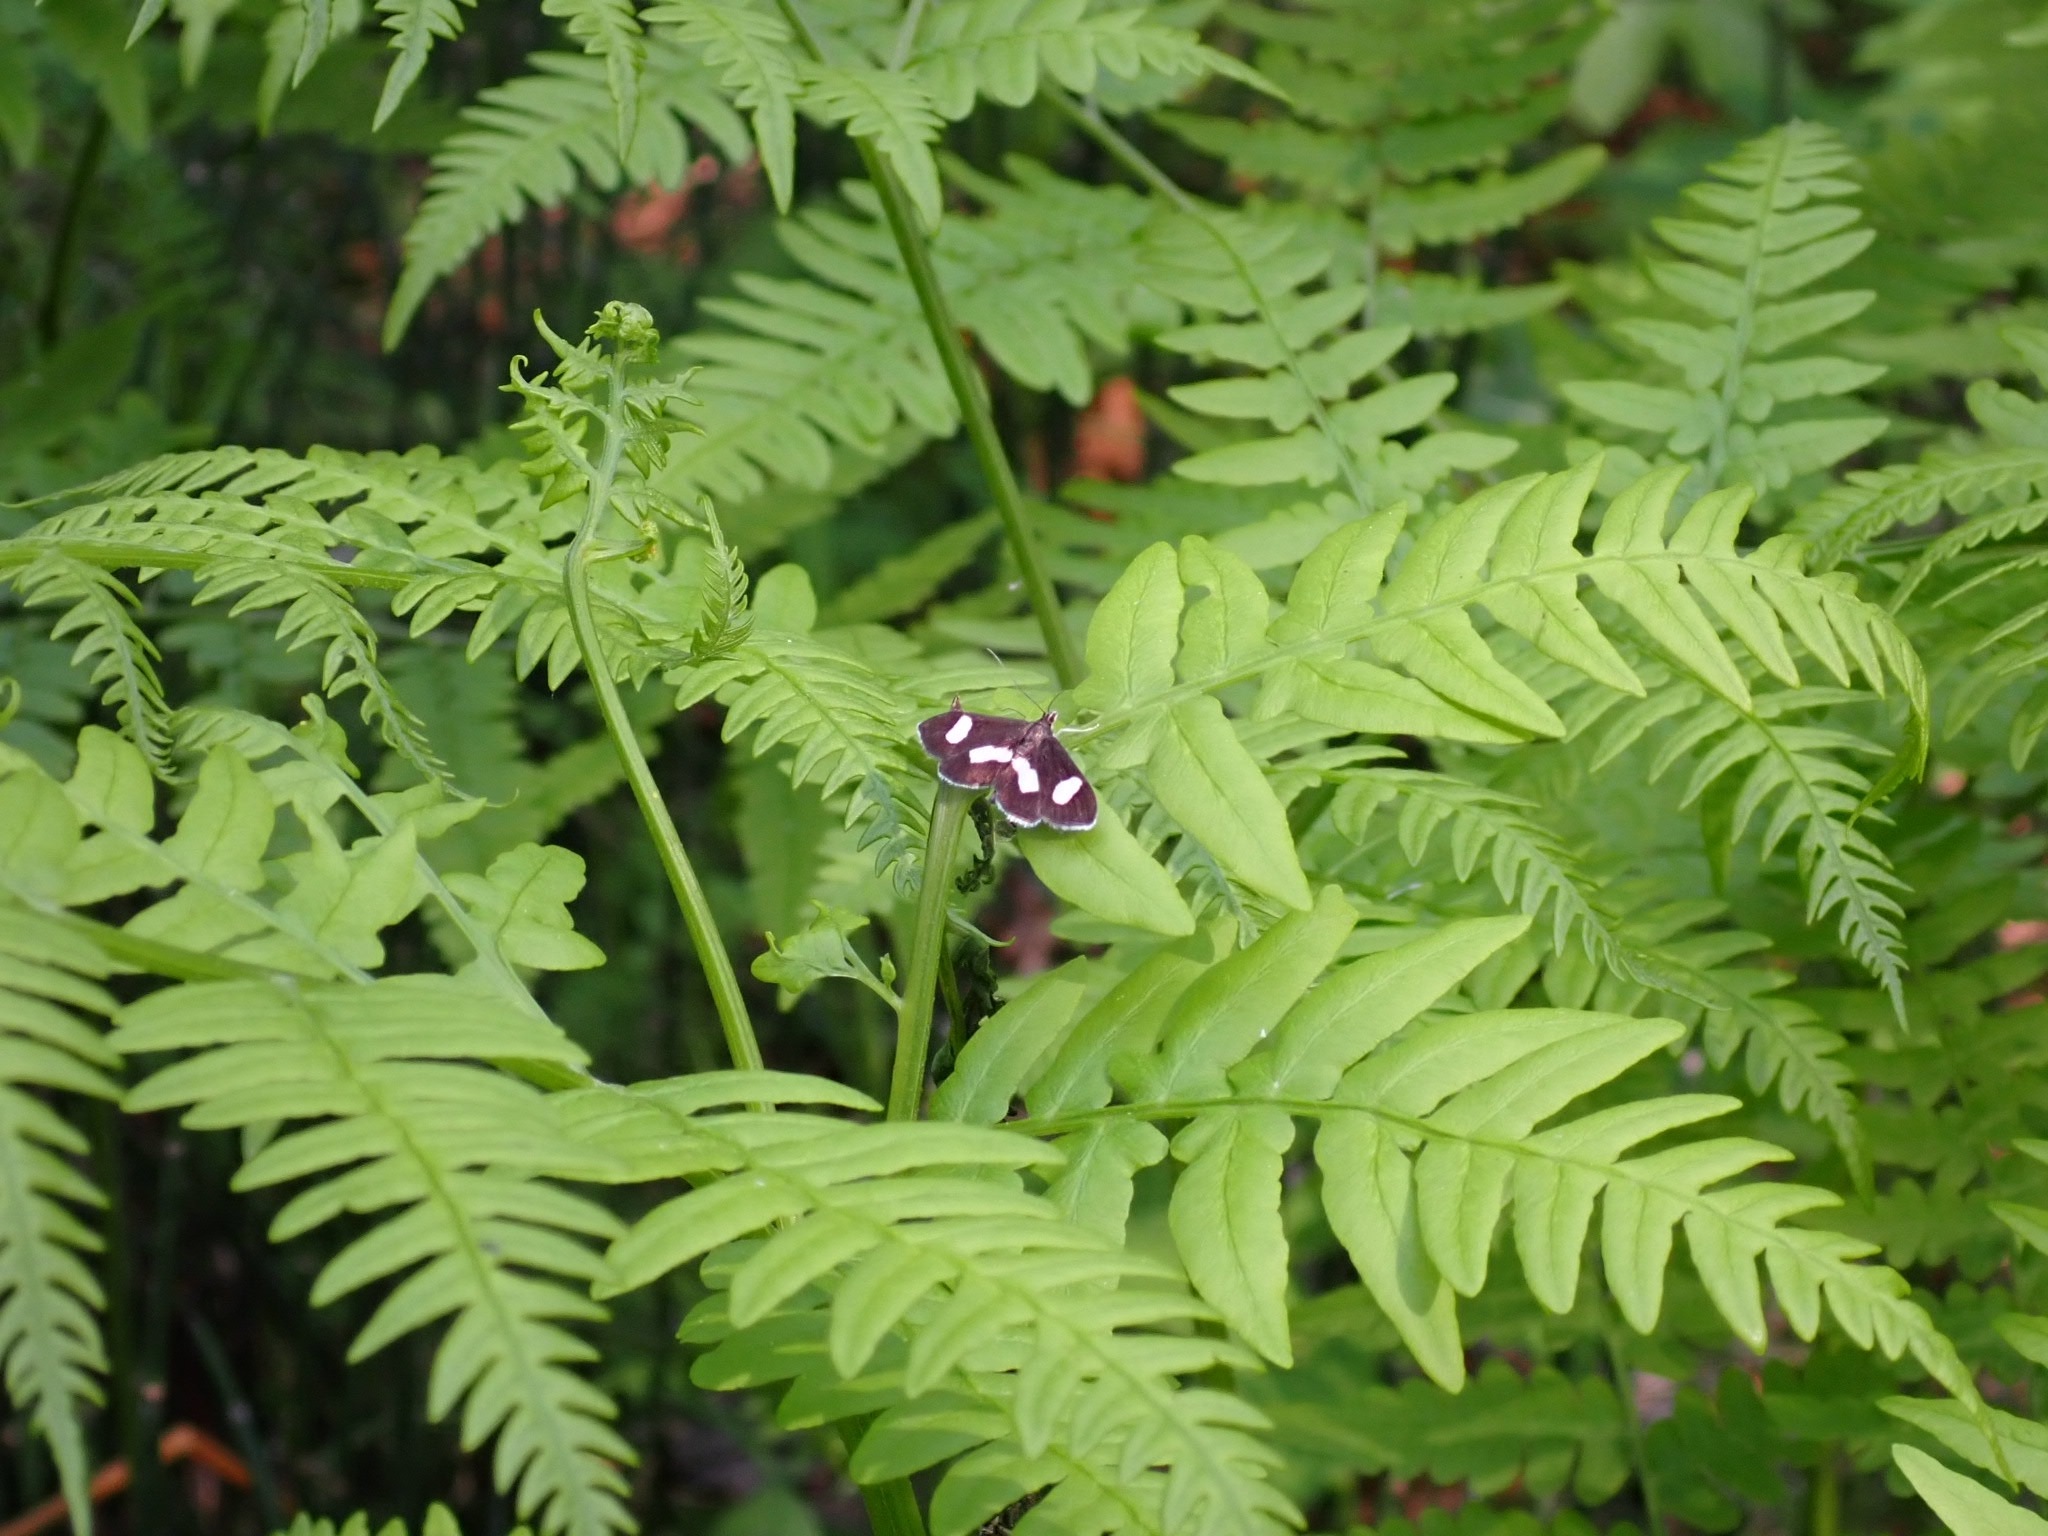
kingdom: Animalia
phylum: Arthropoda
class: Insecta
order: Lepidoptera
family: Crambidae
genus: Anania
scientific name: Anania luctualis
